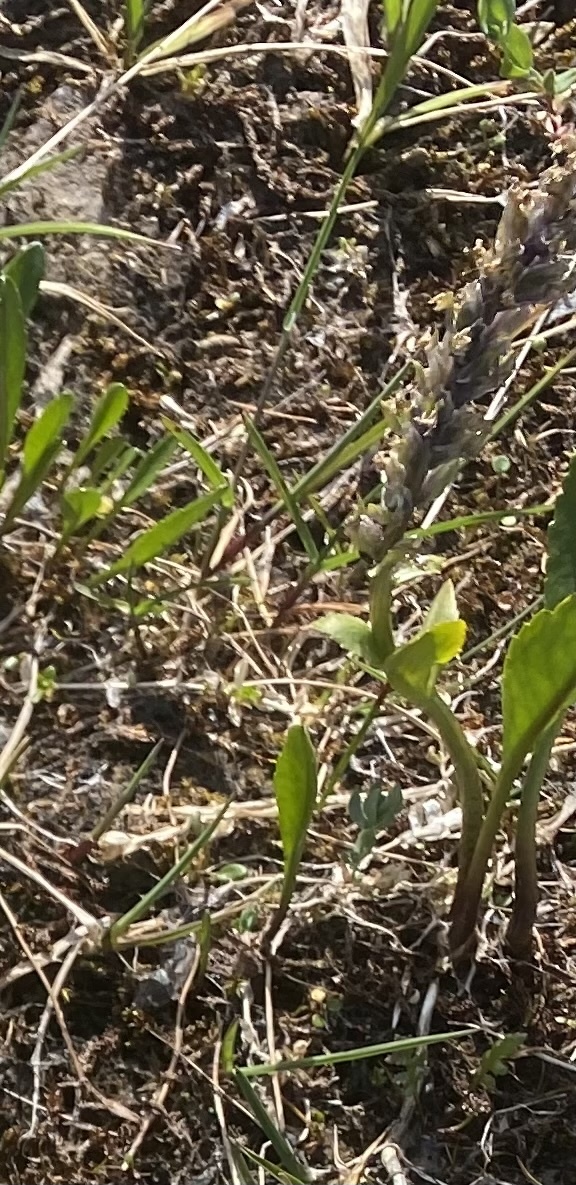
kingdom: Plantae
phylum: Tracheophyta
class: Magnoliopsida
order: Lamiales
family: Plantaginaceae
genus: Lagotis
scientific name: Lagotis glauca
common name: Glaucous weaselsnout
